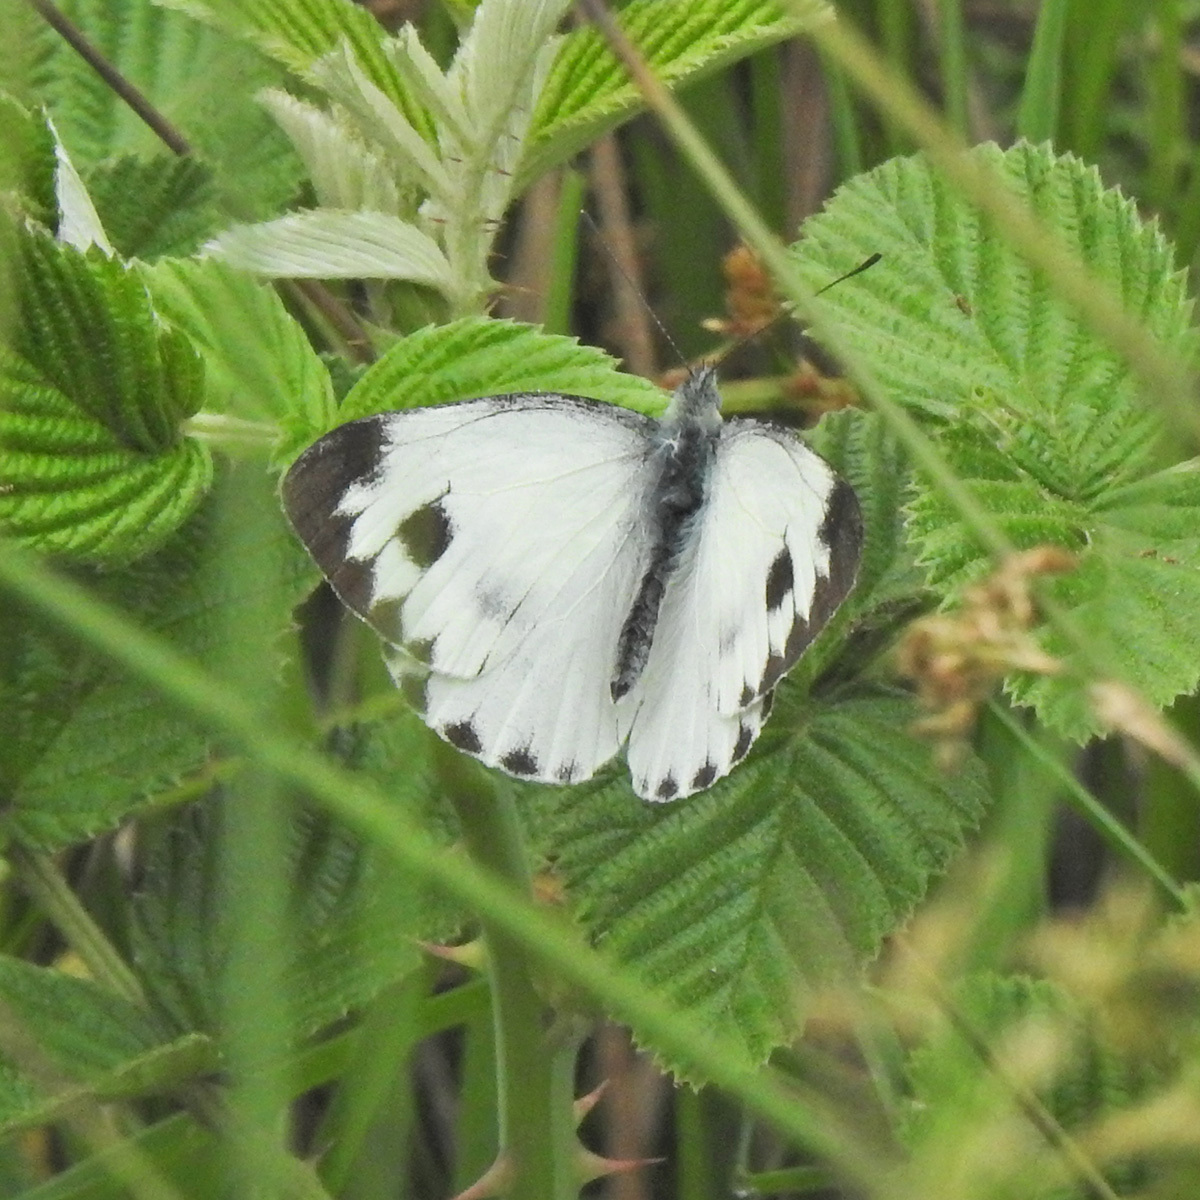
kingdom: Animalia
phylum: Arthropoda
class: Insecta
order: Lepidoptera
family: Pieridae
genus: Pieris
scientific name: Pieris canidia
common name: Indian cabbage white
